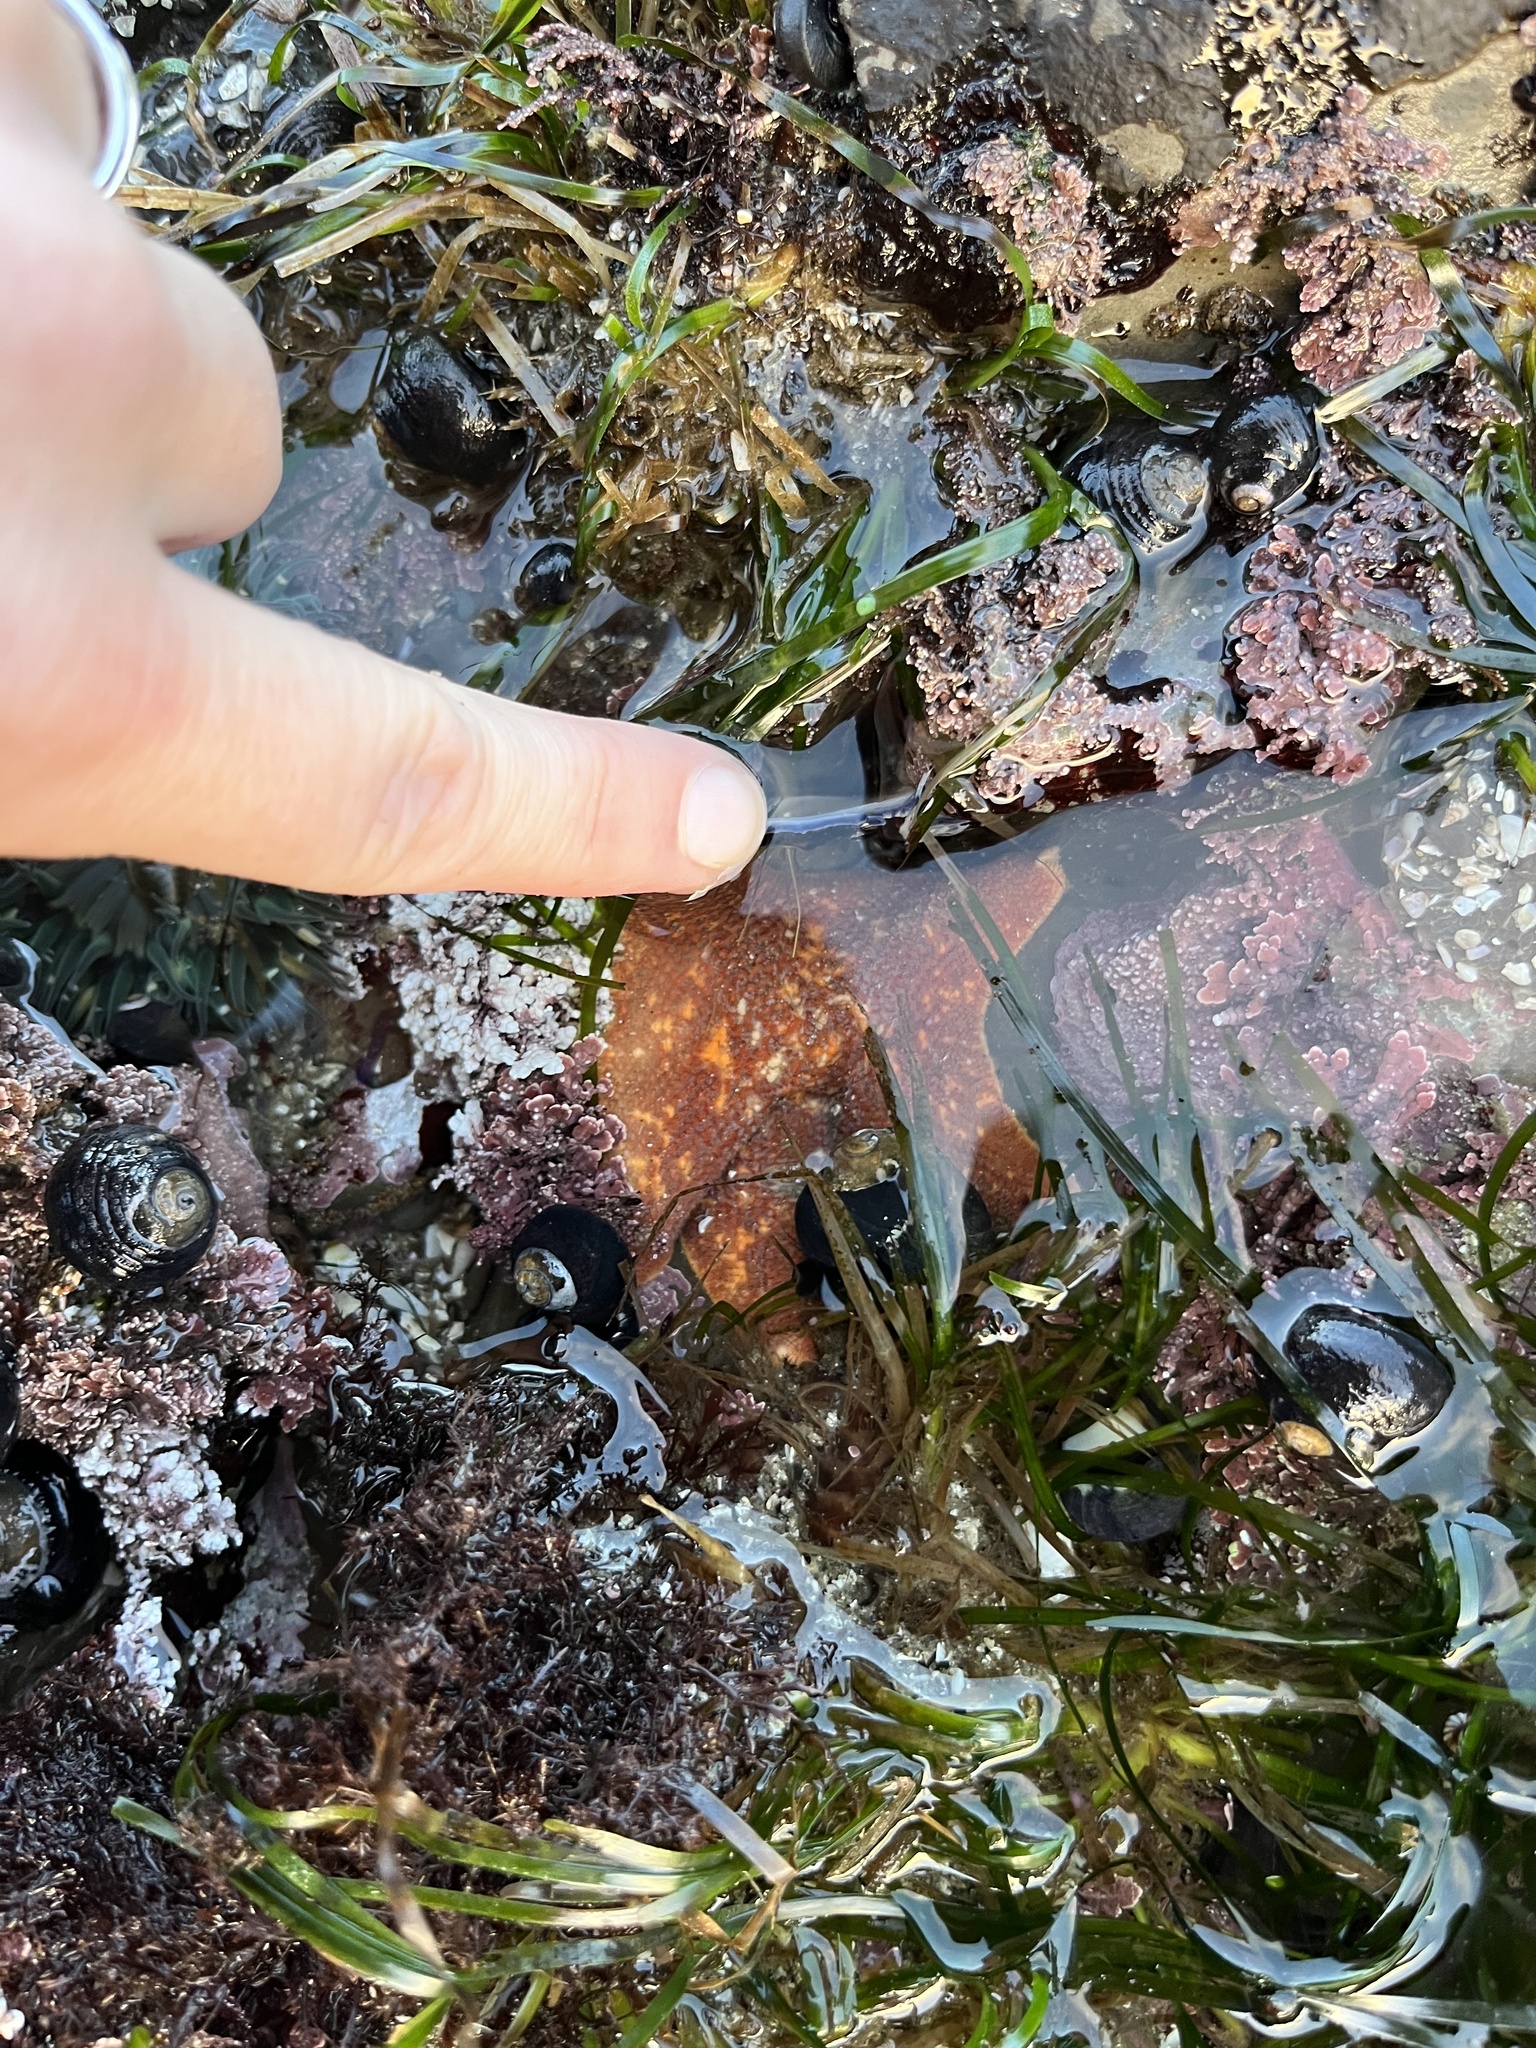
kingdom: Animalia
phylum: Echinodermata
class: Asteroidea
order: Valvatida
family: Asterinidae
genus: Patiria
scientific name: Patiria miniata
